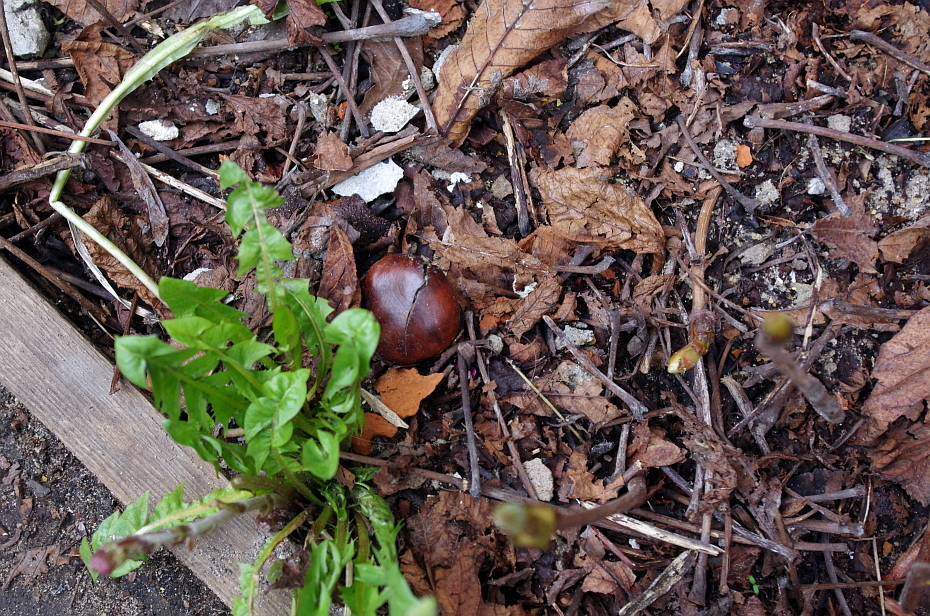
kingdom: Plantae
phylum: Tracheophyta
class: Magnoliopsida
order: Sapindales
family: Sapindaceae
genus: Aesculus
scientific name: Aesculus hippocastanum
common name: Horse-chestnut
